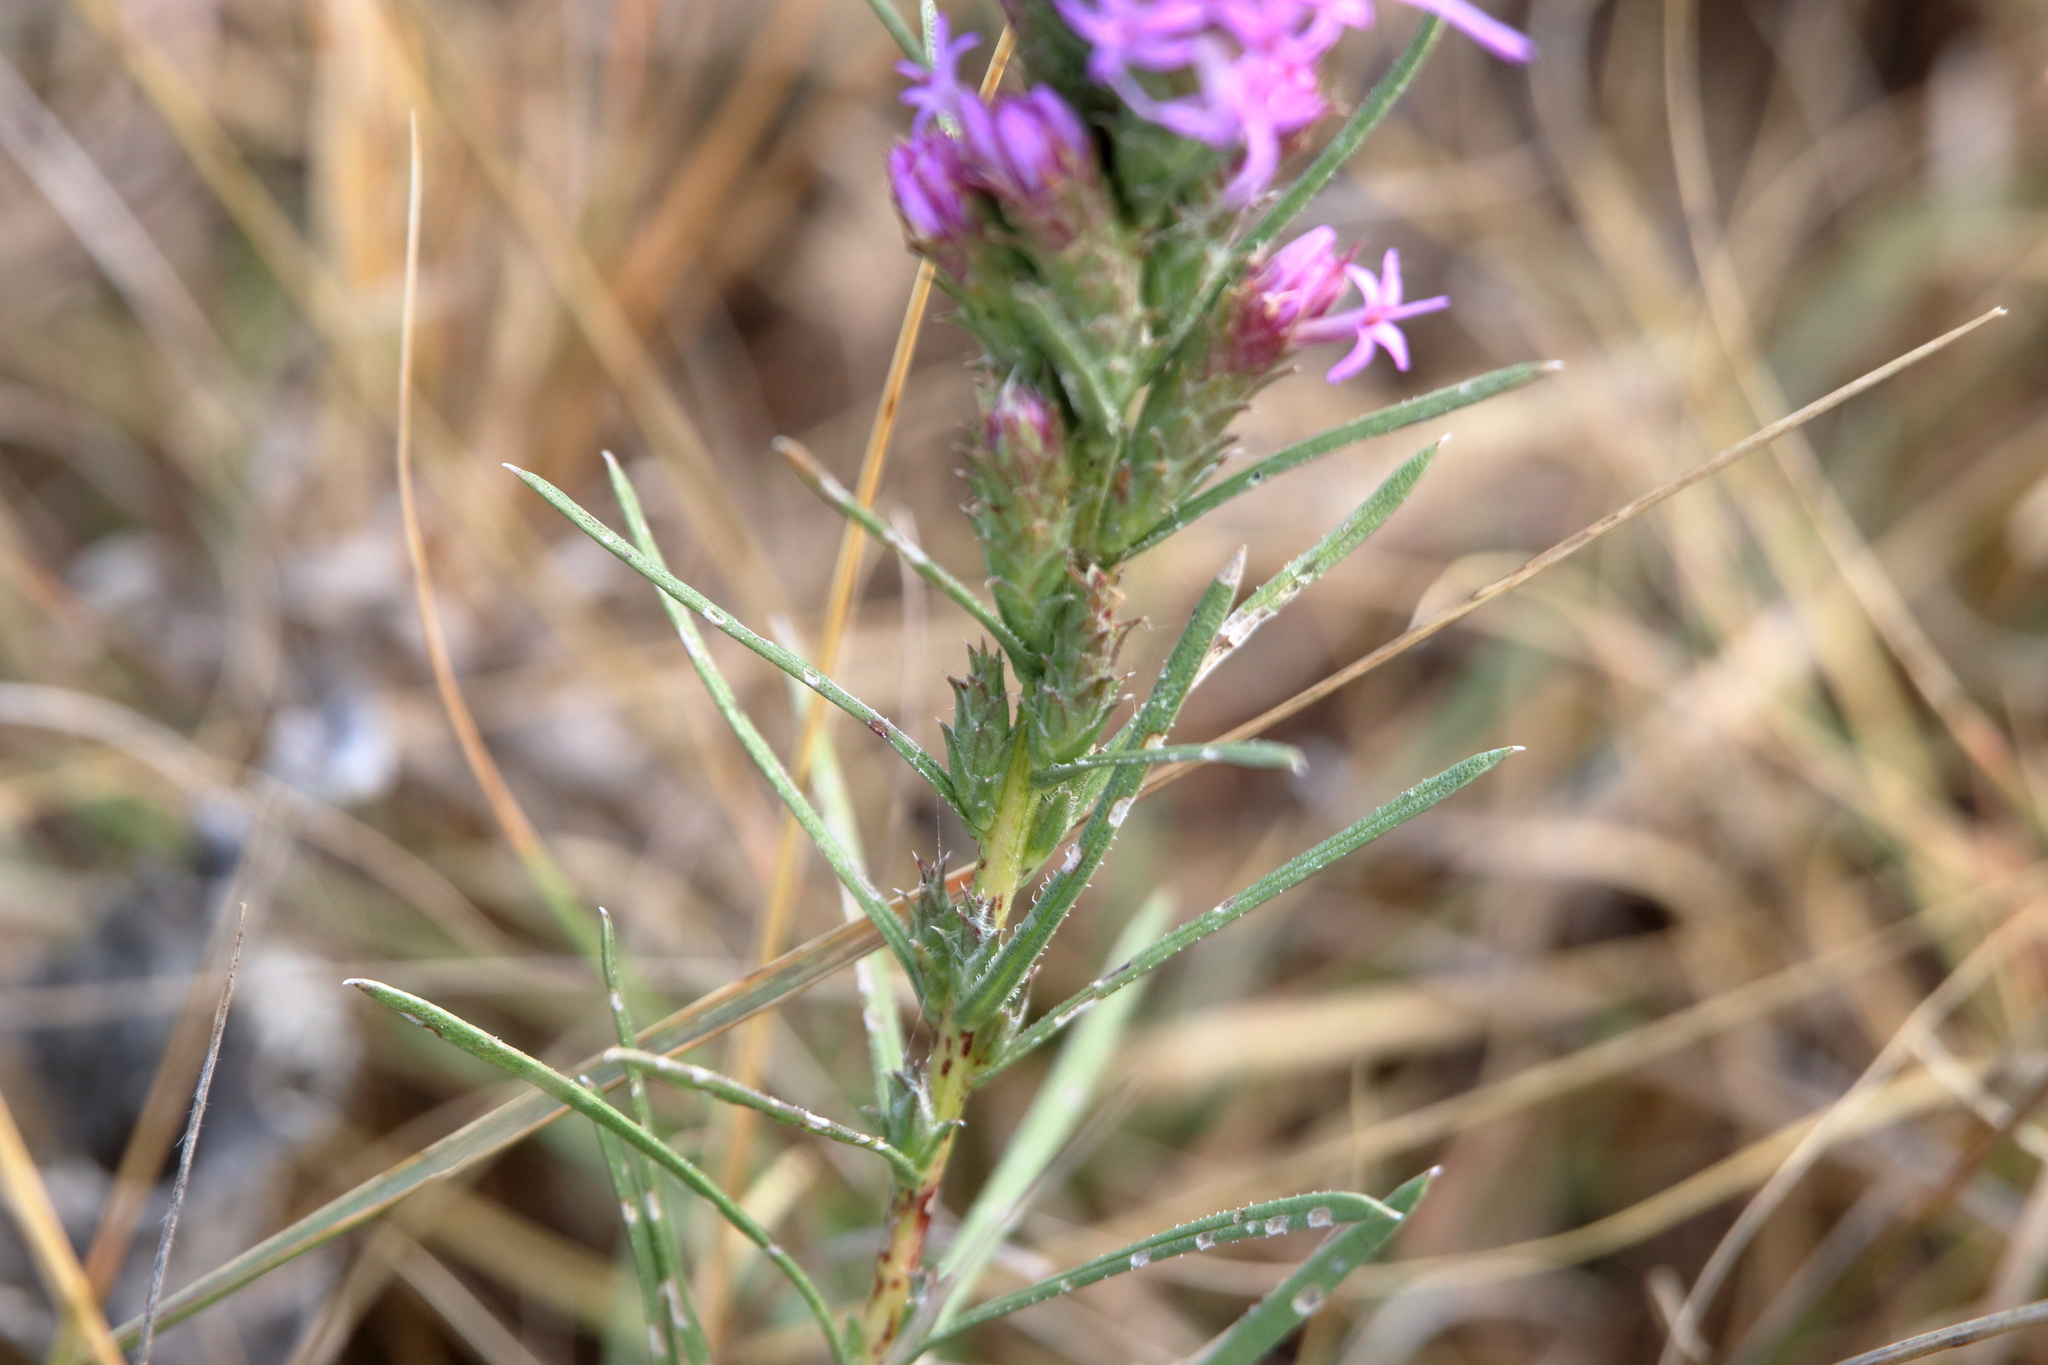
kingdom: Plantae
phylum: Tracheophyta
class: Magnoliopsida
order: Asterales
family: Asteraceae
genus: Liatris
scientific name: Liatris punctata
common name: Dotted gayfeather
